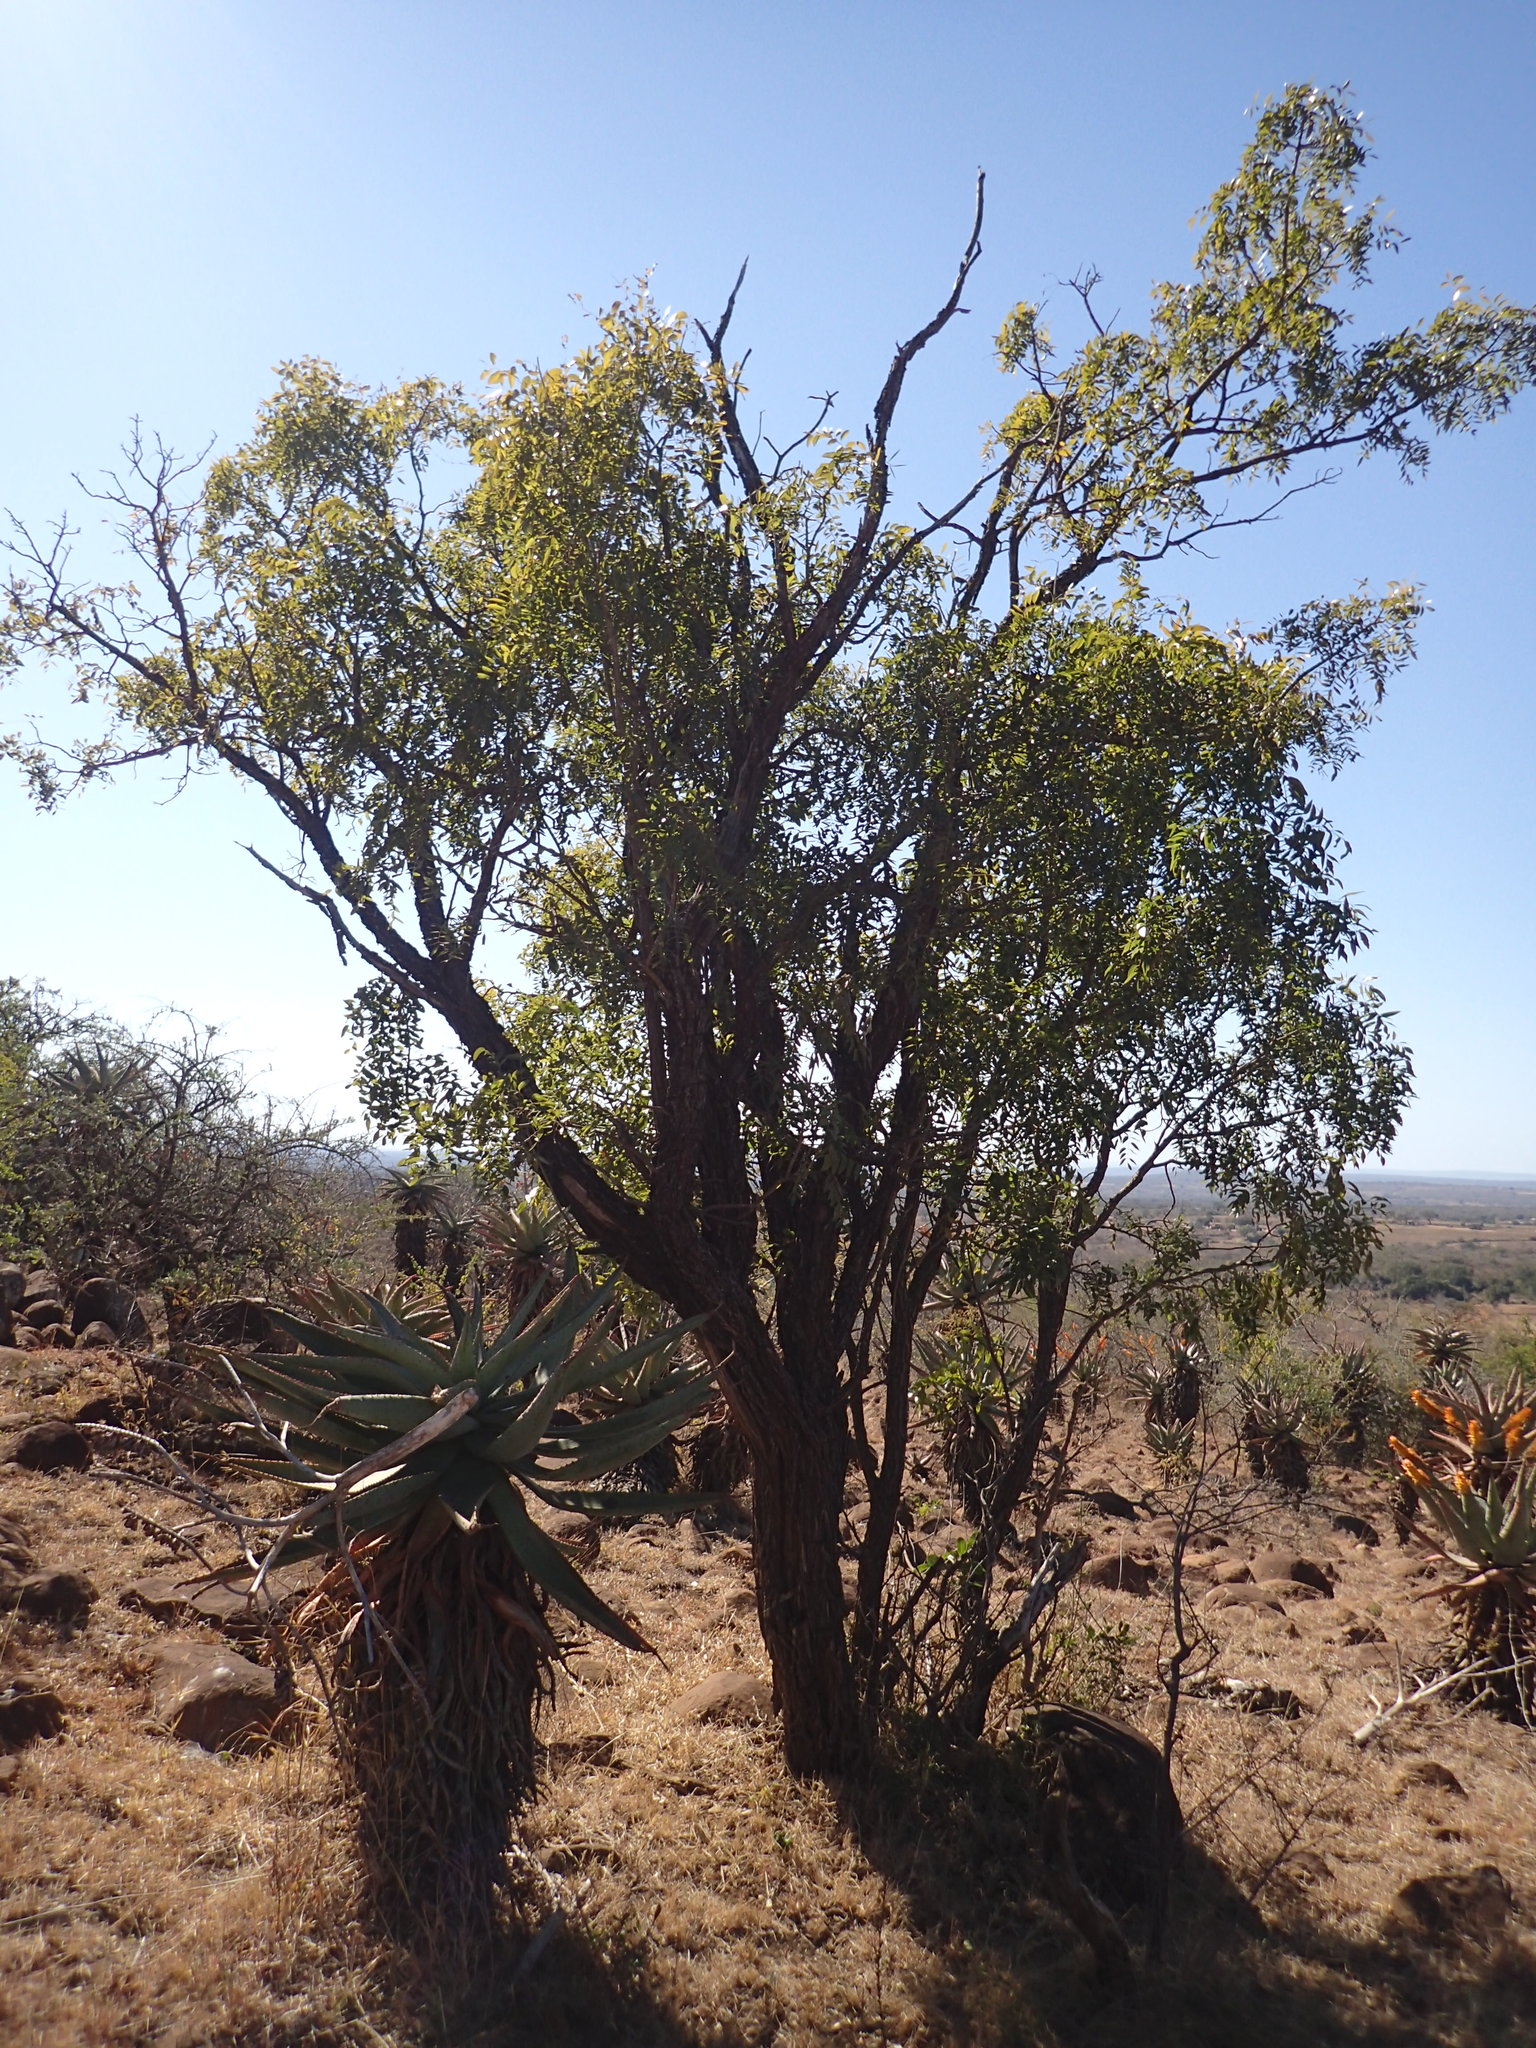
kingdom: Plantae
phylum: Tracheophyta
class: Magnoliopsida
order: Fabales
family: Fabaceae
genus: Bolusanthus
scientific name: Bolusanthus speciosus
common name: Tree wisteria
